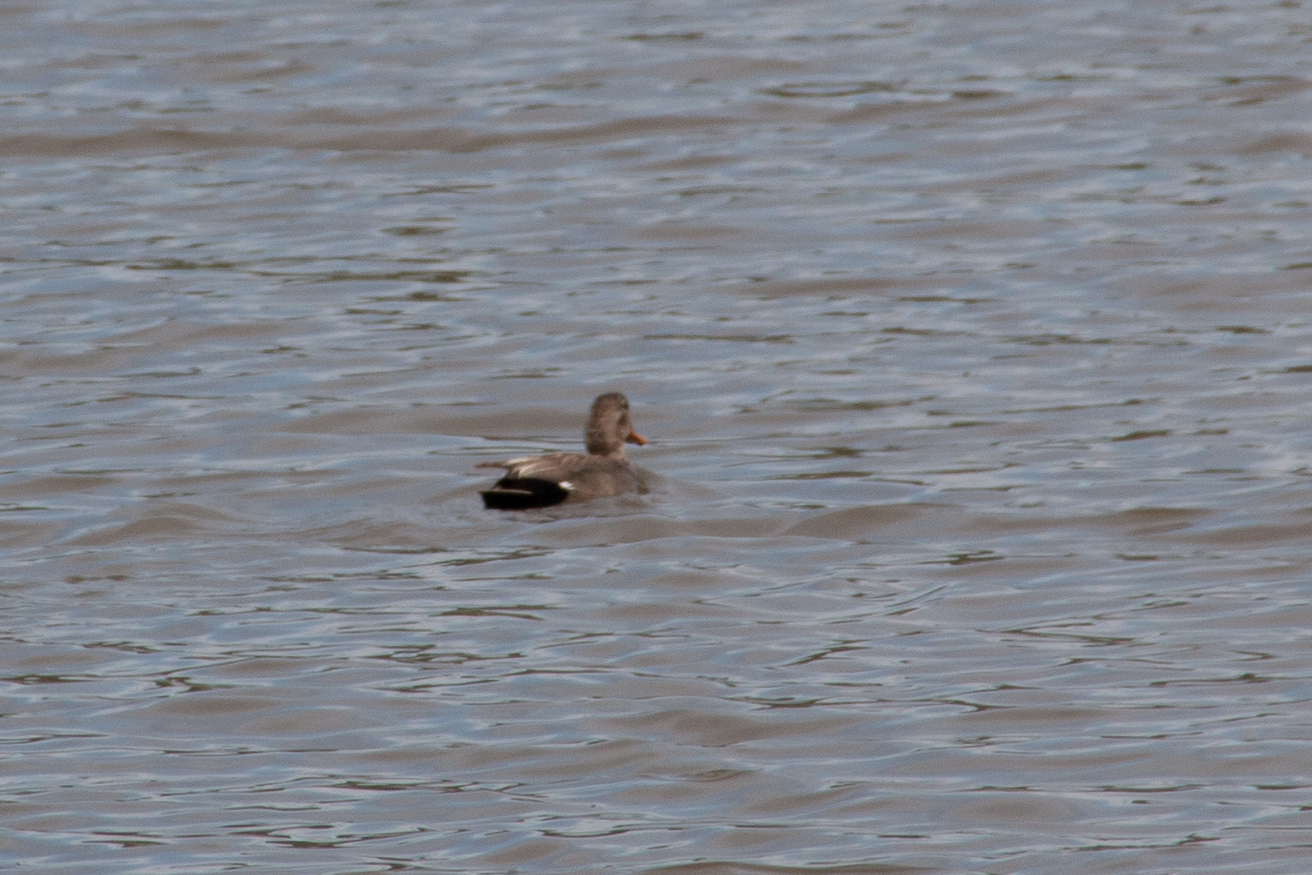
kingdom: Animalia
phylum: Chordata
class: Aves
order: Anseriformes
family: Anatidae
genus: Mareca
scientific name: Mareca strepera
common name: Gadwall
